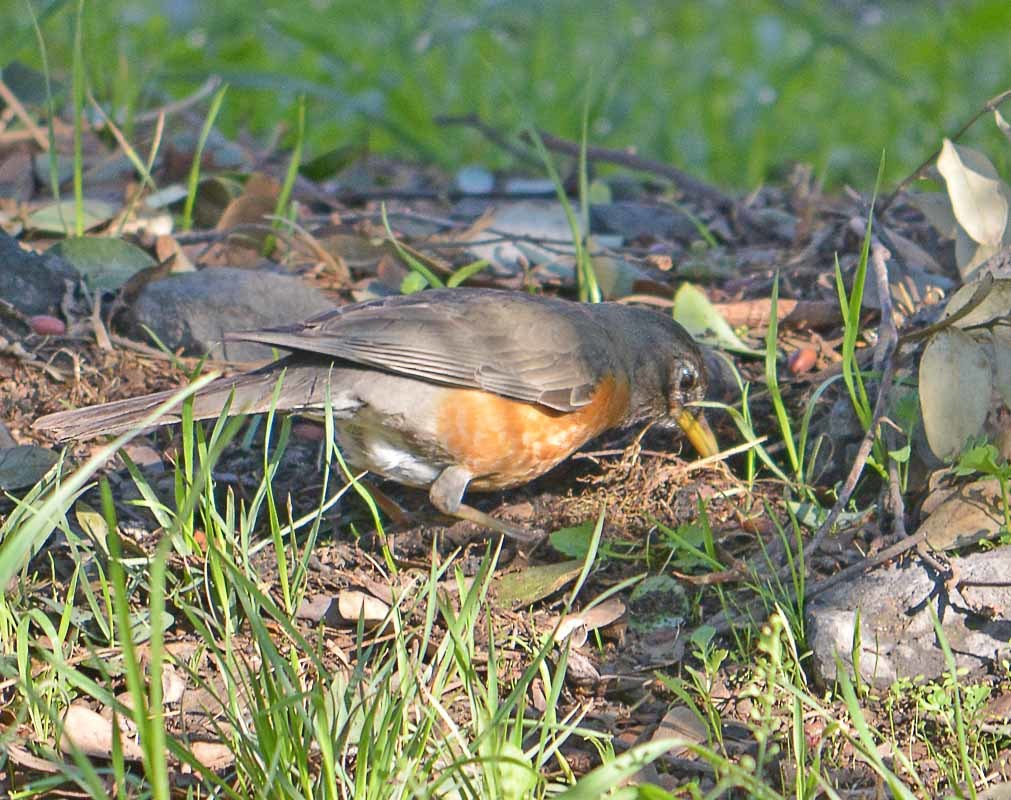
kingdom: Animalia
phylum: Chordata
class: Aves
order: Passeriformes
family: Turdidae
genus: Turdus
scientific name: Turdus migratorius
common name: American robin
